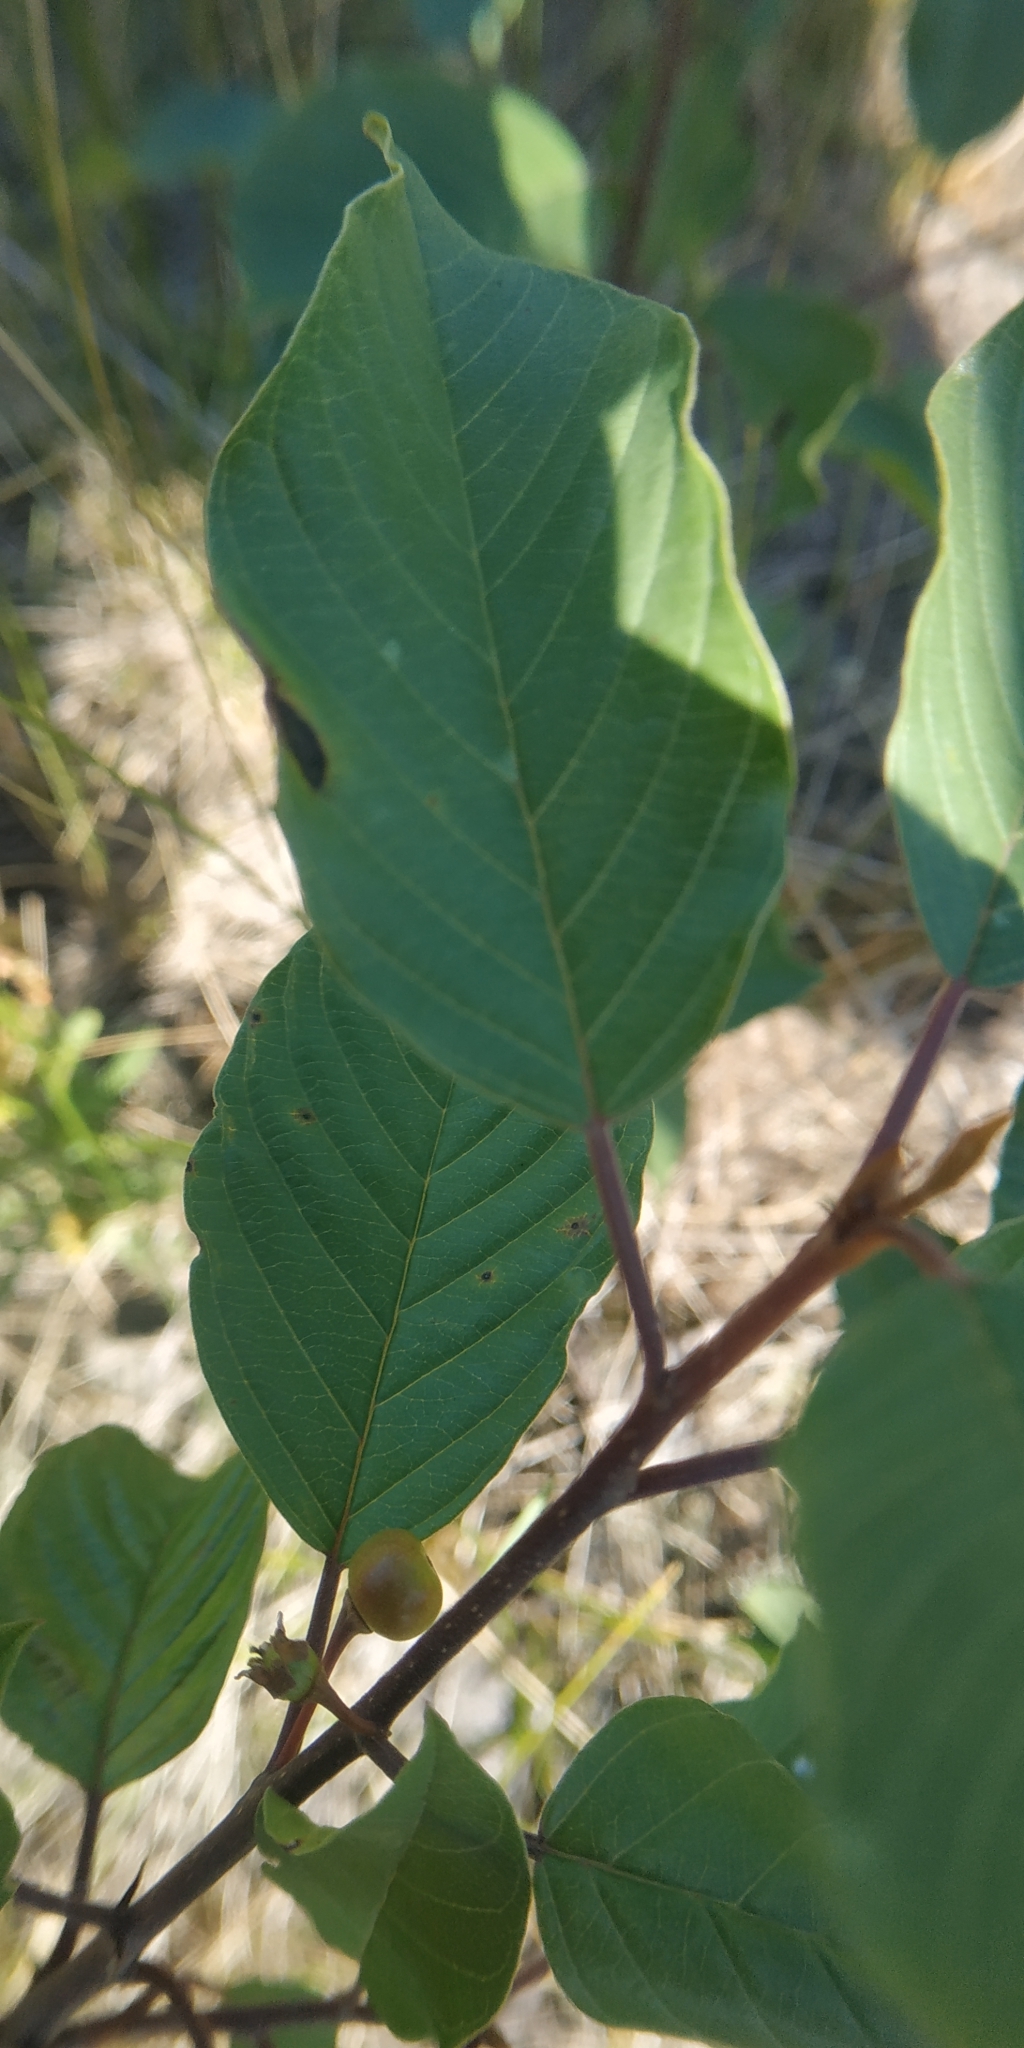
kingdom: Plantae
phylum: Tracheophyta
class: Magnoliopsida
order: Rosales
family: Rhamnaceae
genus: Frangula
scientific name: Frangula alnus
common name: Alder buckthorn
